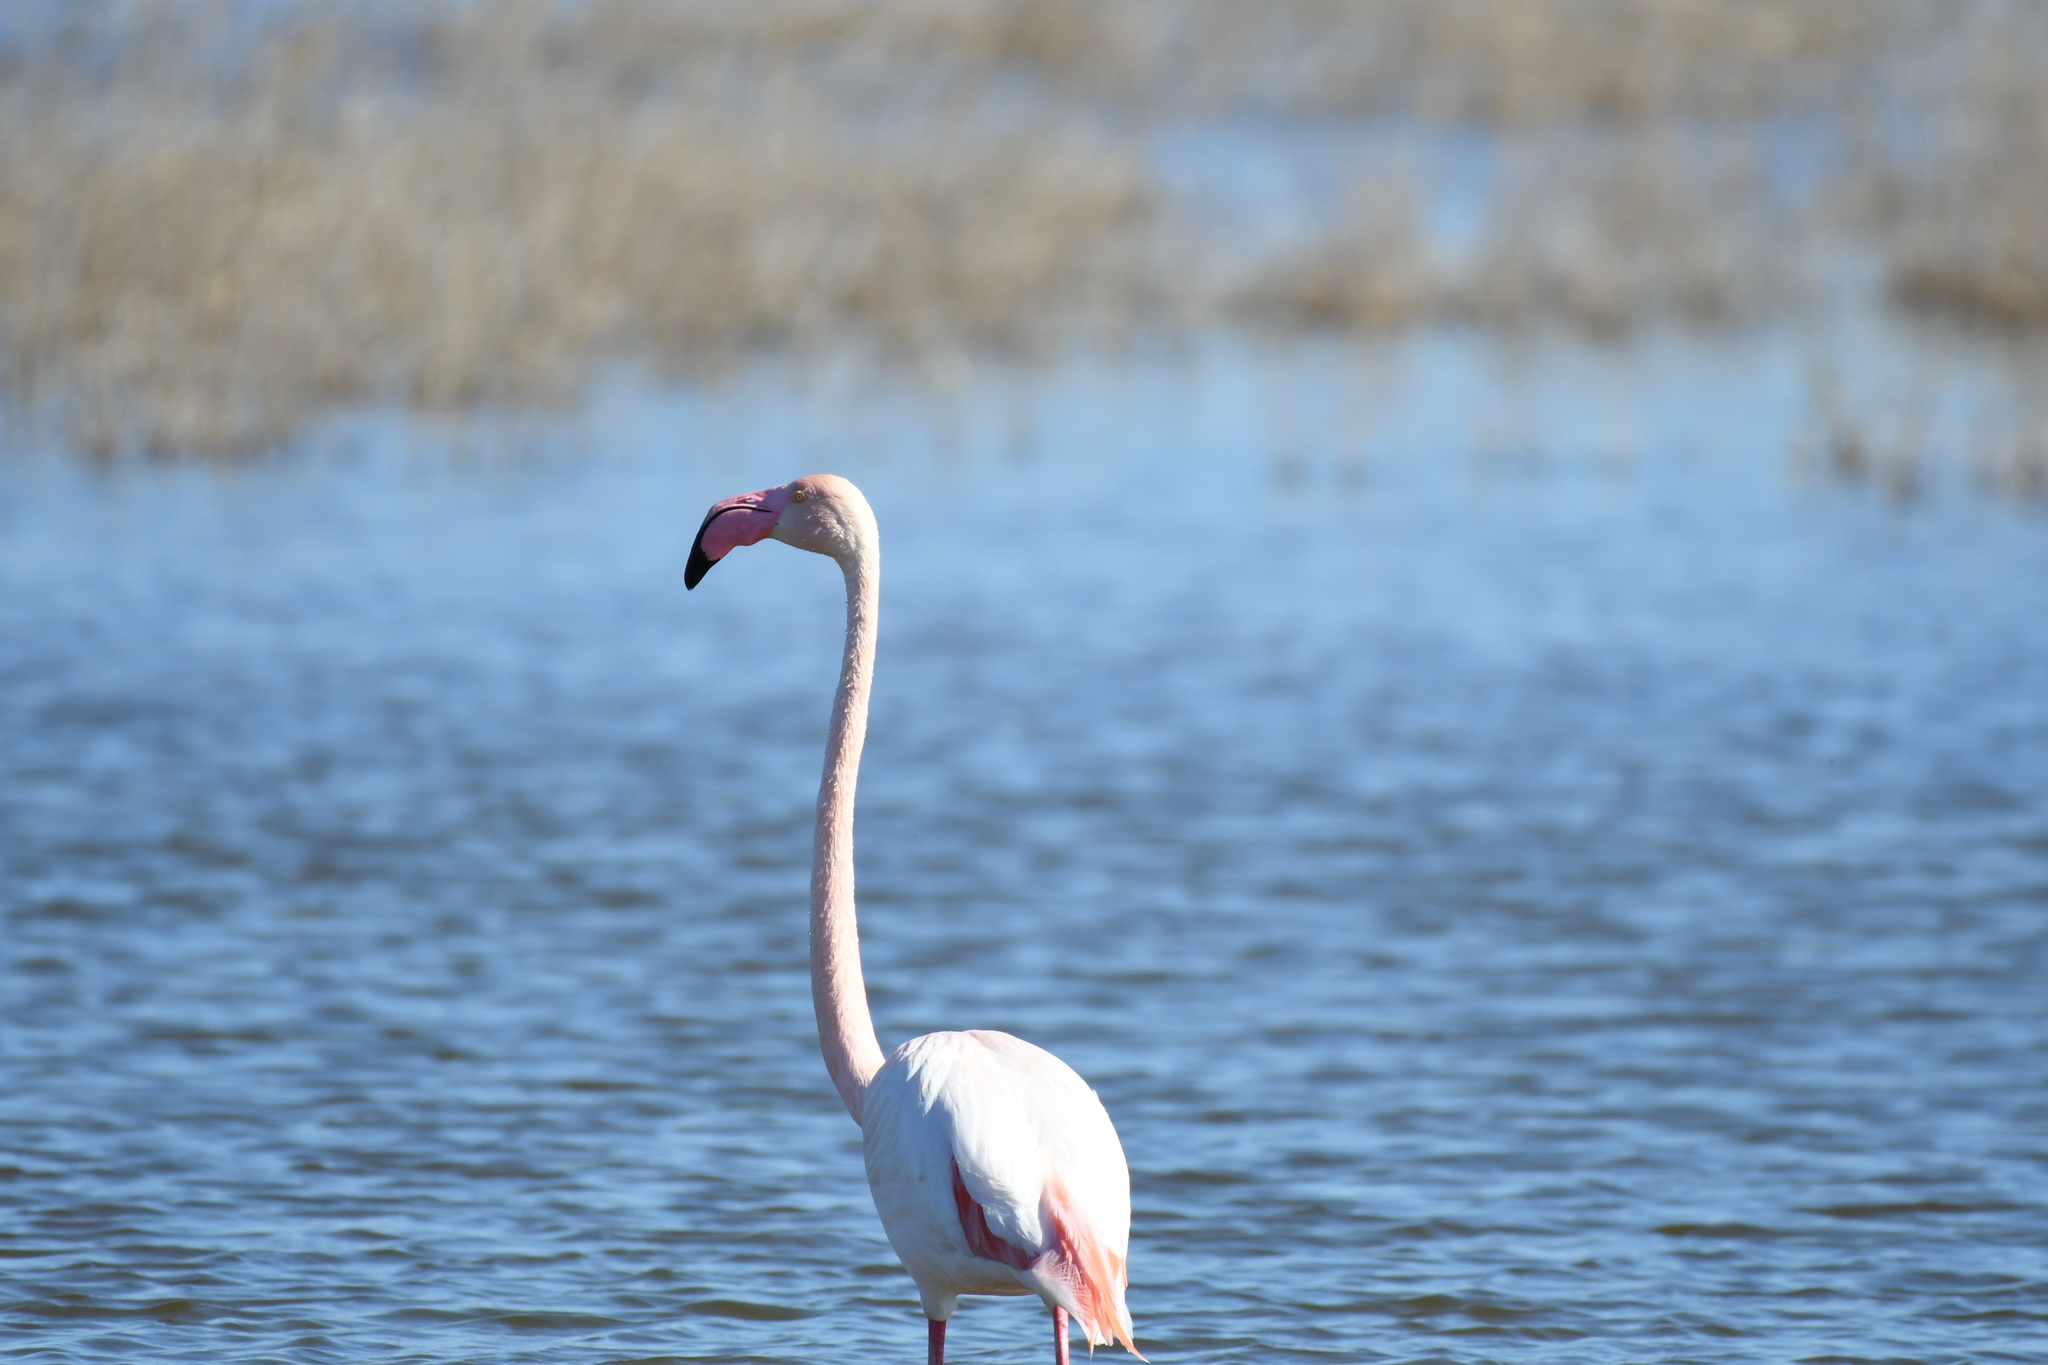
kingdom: Animalia
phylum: Chordata
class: Aves
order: Phoenicopteriformes
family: Phoenicopteridae
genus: Phoenicopterus
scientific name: Phoenicopterus roseus
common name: Greater flamingo
